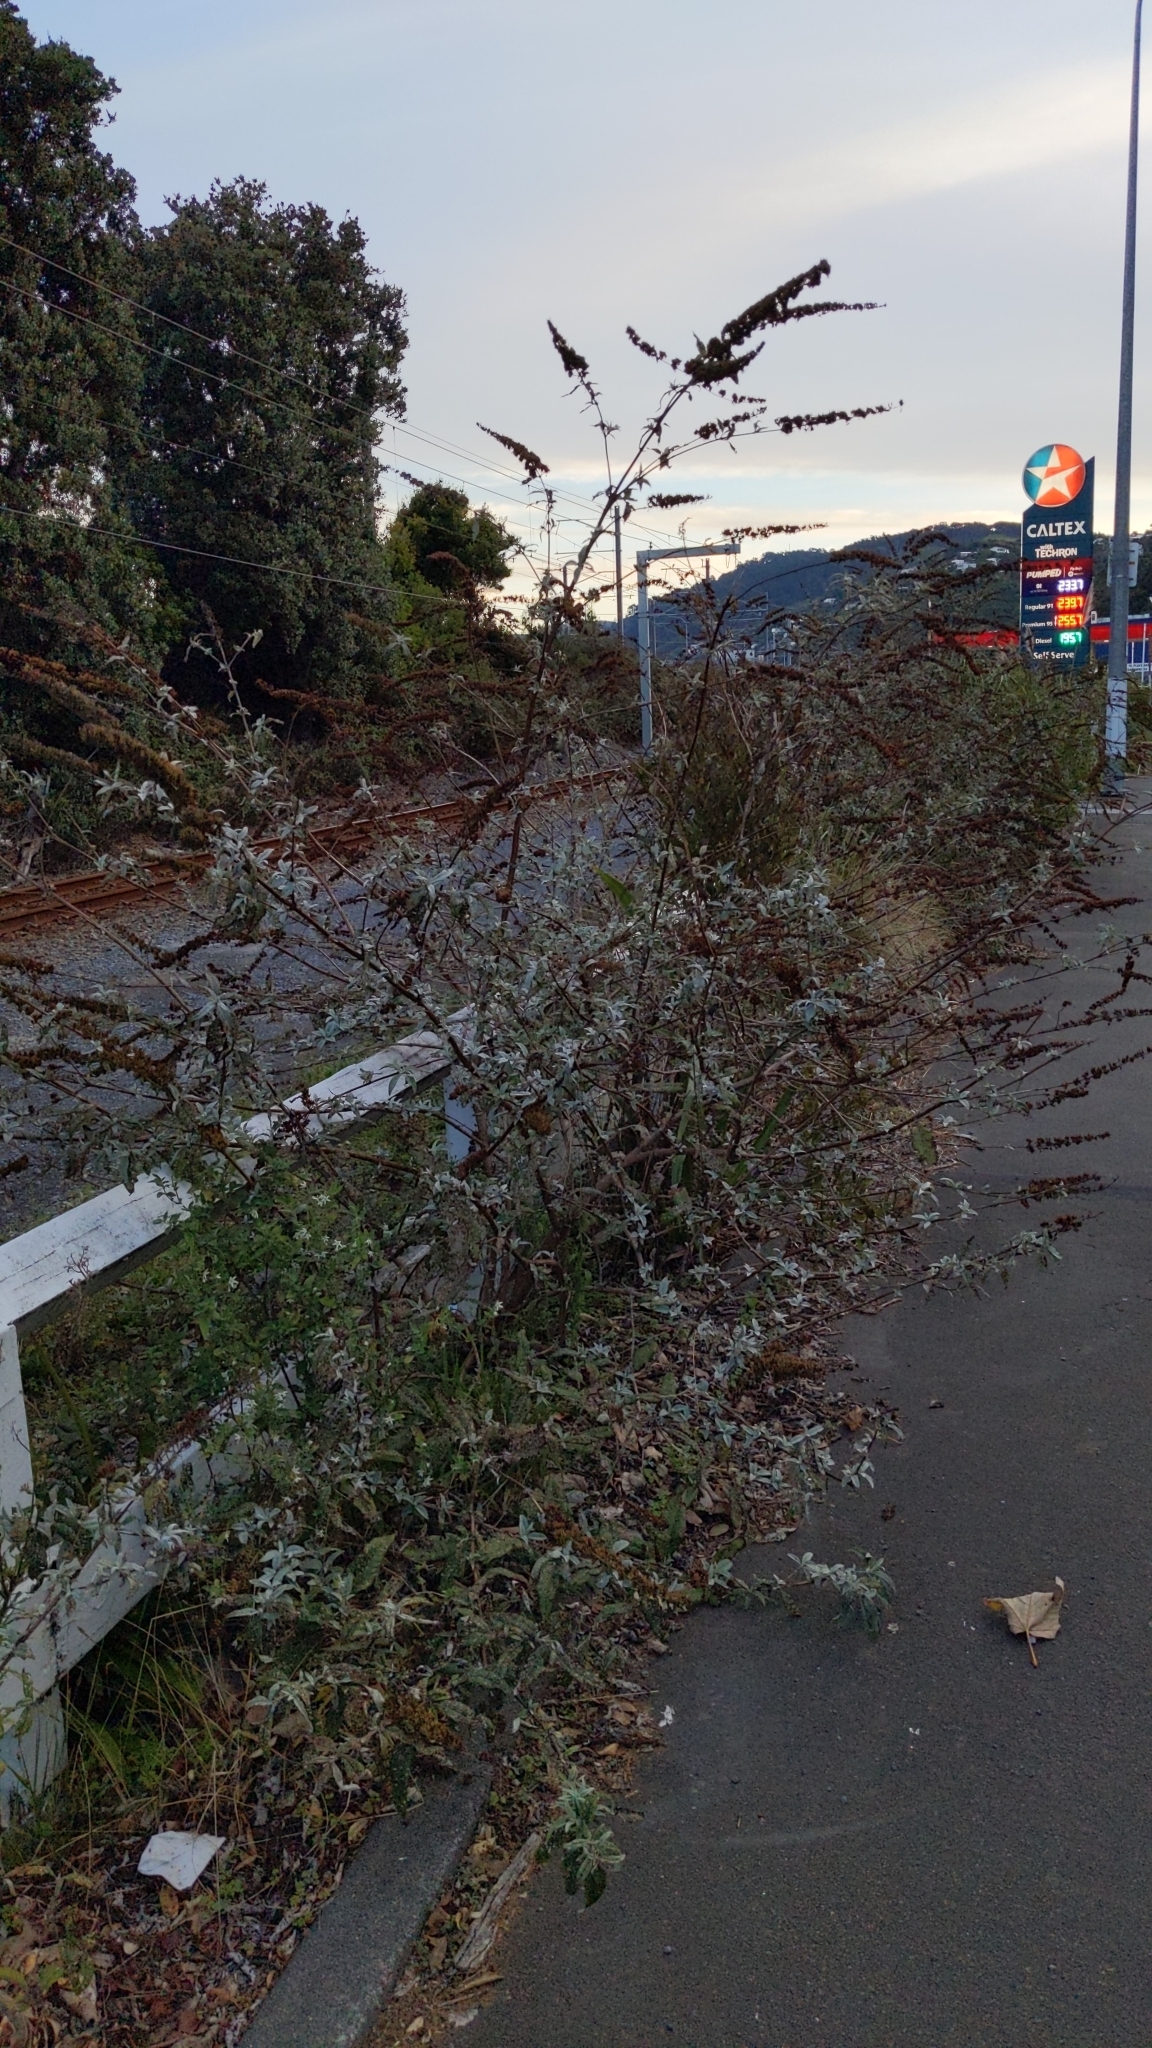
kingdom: Plantae
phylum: Tracheophyta
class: Magnoliopsida
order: Lamiales
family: Scrophulariaceae
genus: Buddleja
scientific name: Buddleja davidii
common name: Butterfly-bush
